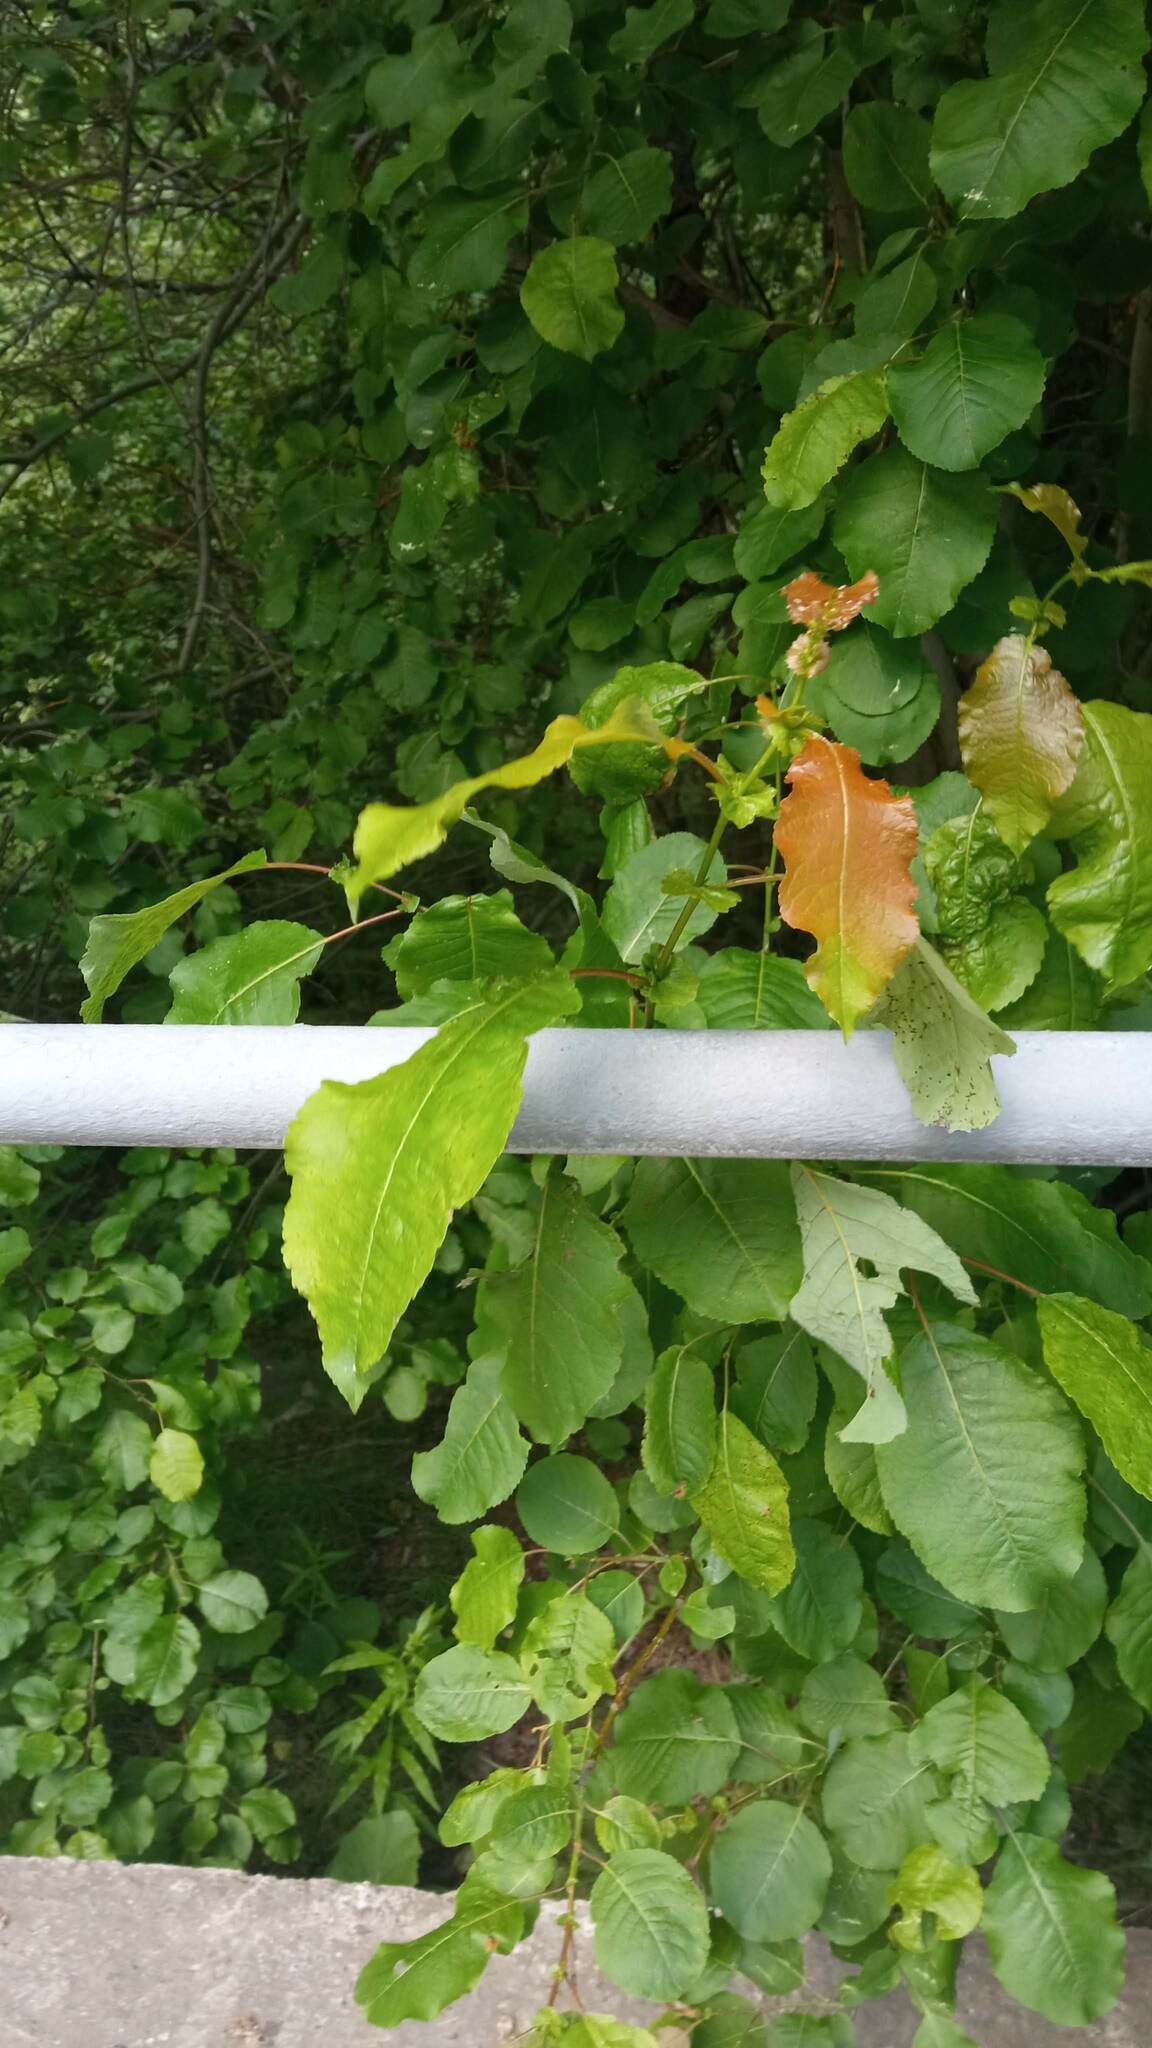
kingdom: Plantae
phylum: Tracheophyta
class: Magnoliopsida
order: Malpighiales
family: Salicaceae
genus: Salix
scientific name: Salix pyrolifolia
